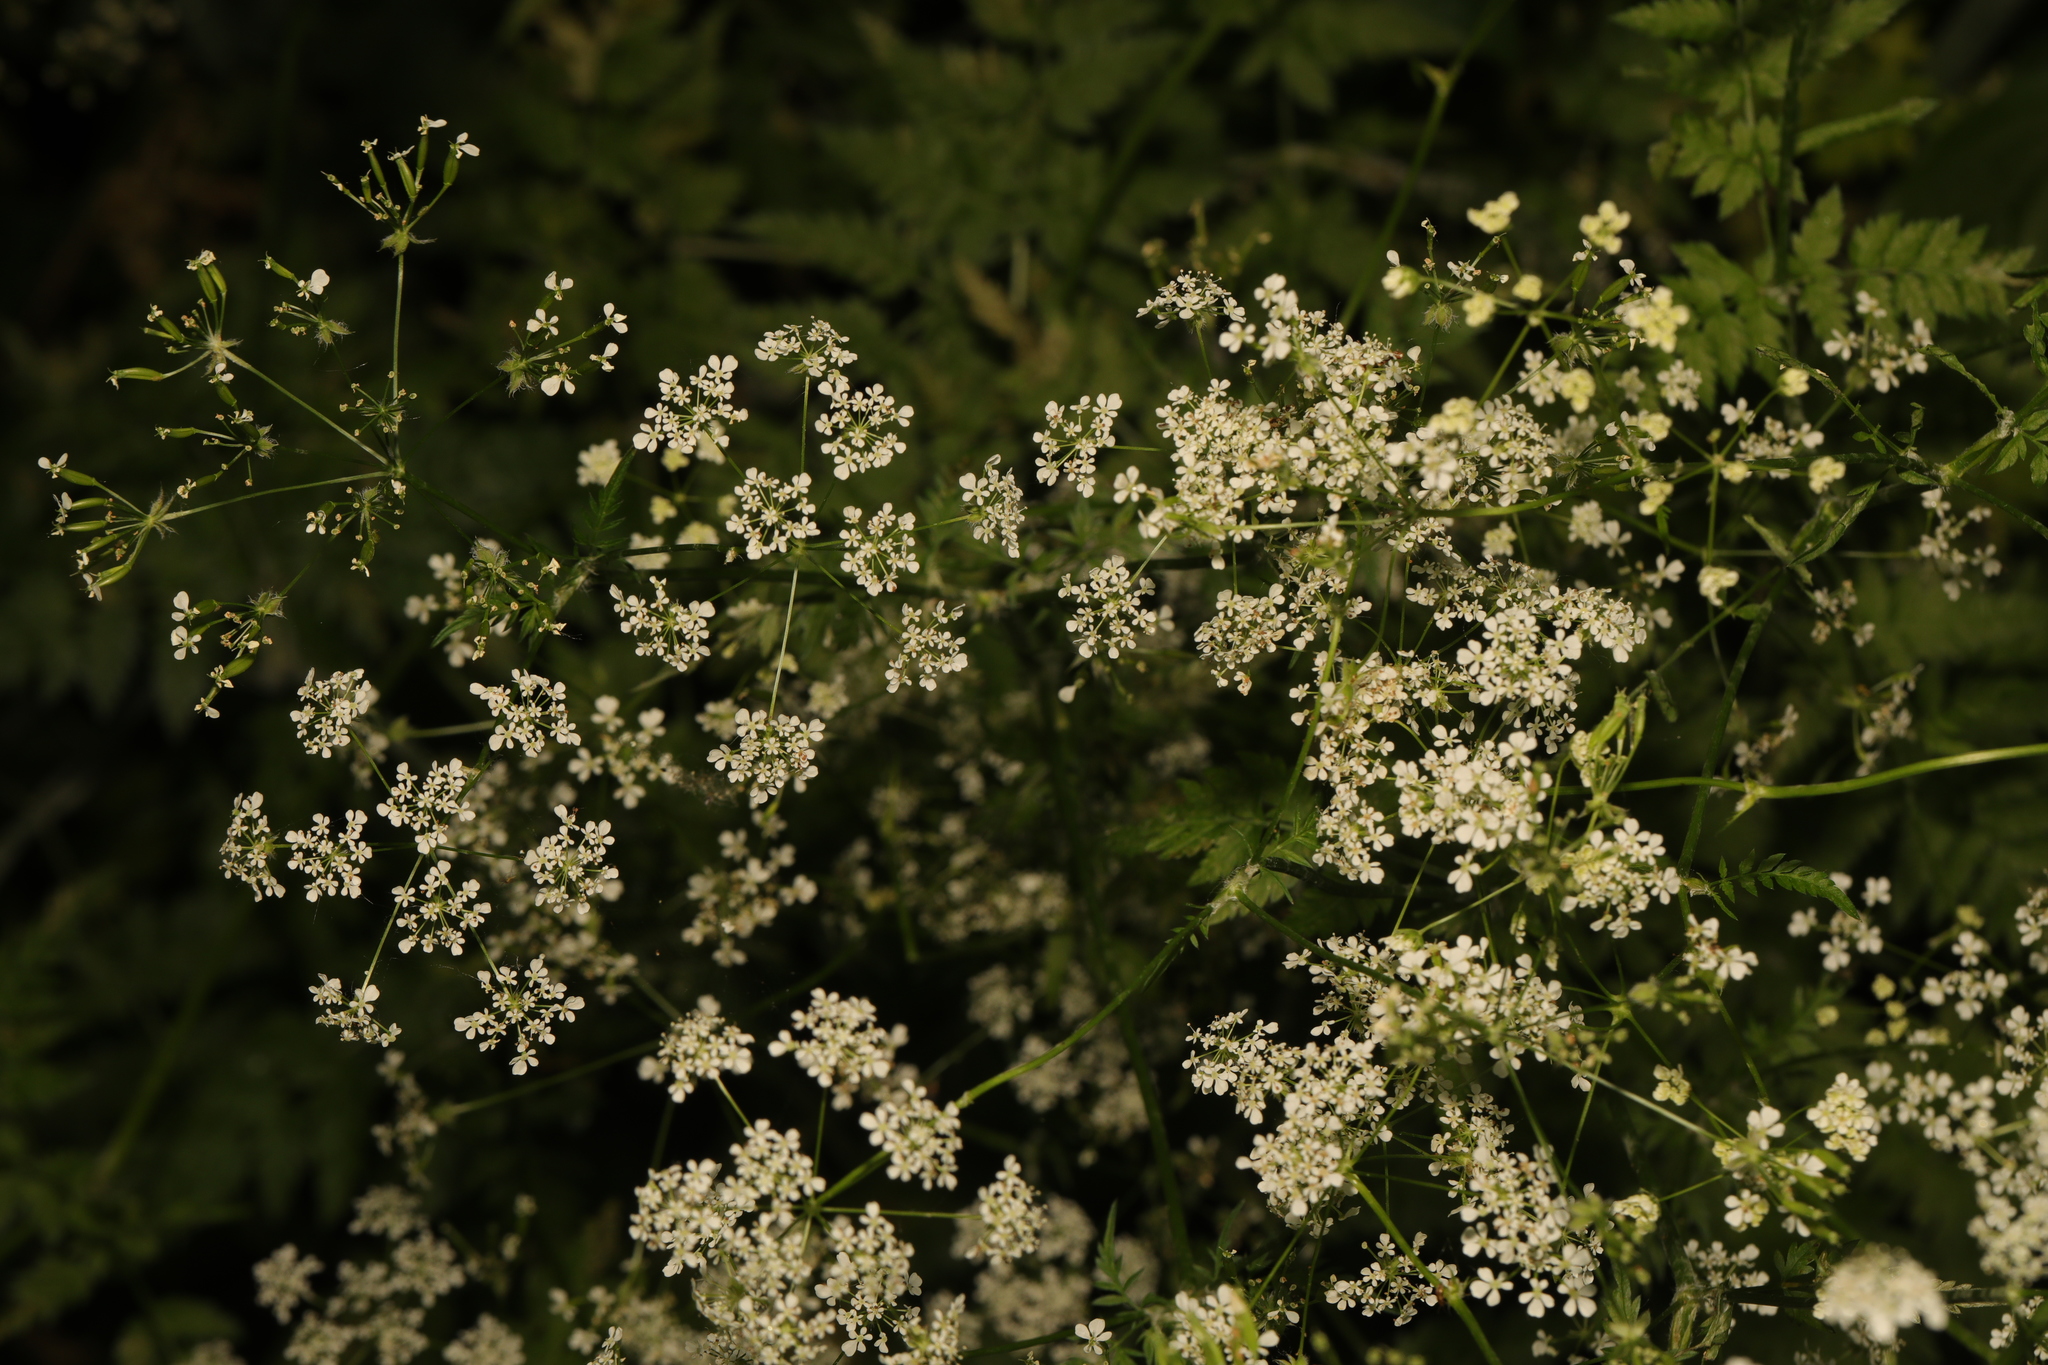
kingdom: Plantae
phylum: Tracheophyta
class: Magnoliopsida
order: Apiales
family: Apiaceae
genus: Anthriscus
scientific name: Anthriscus sylvestris
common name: Cow parsley
